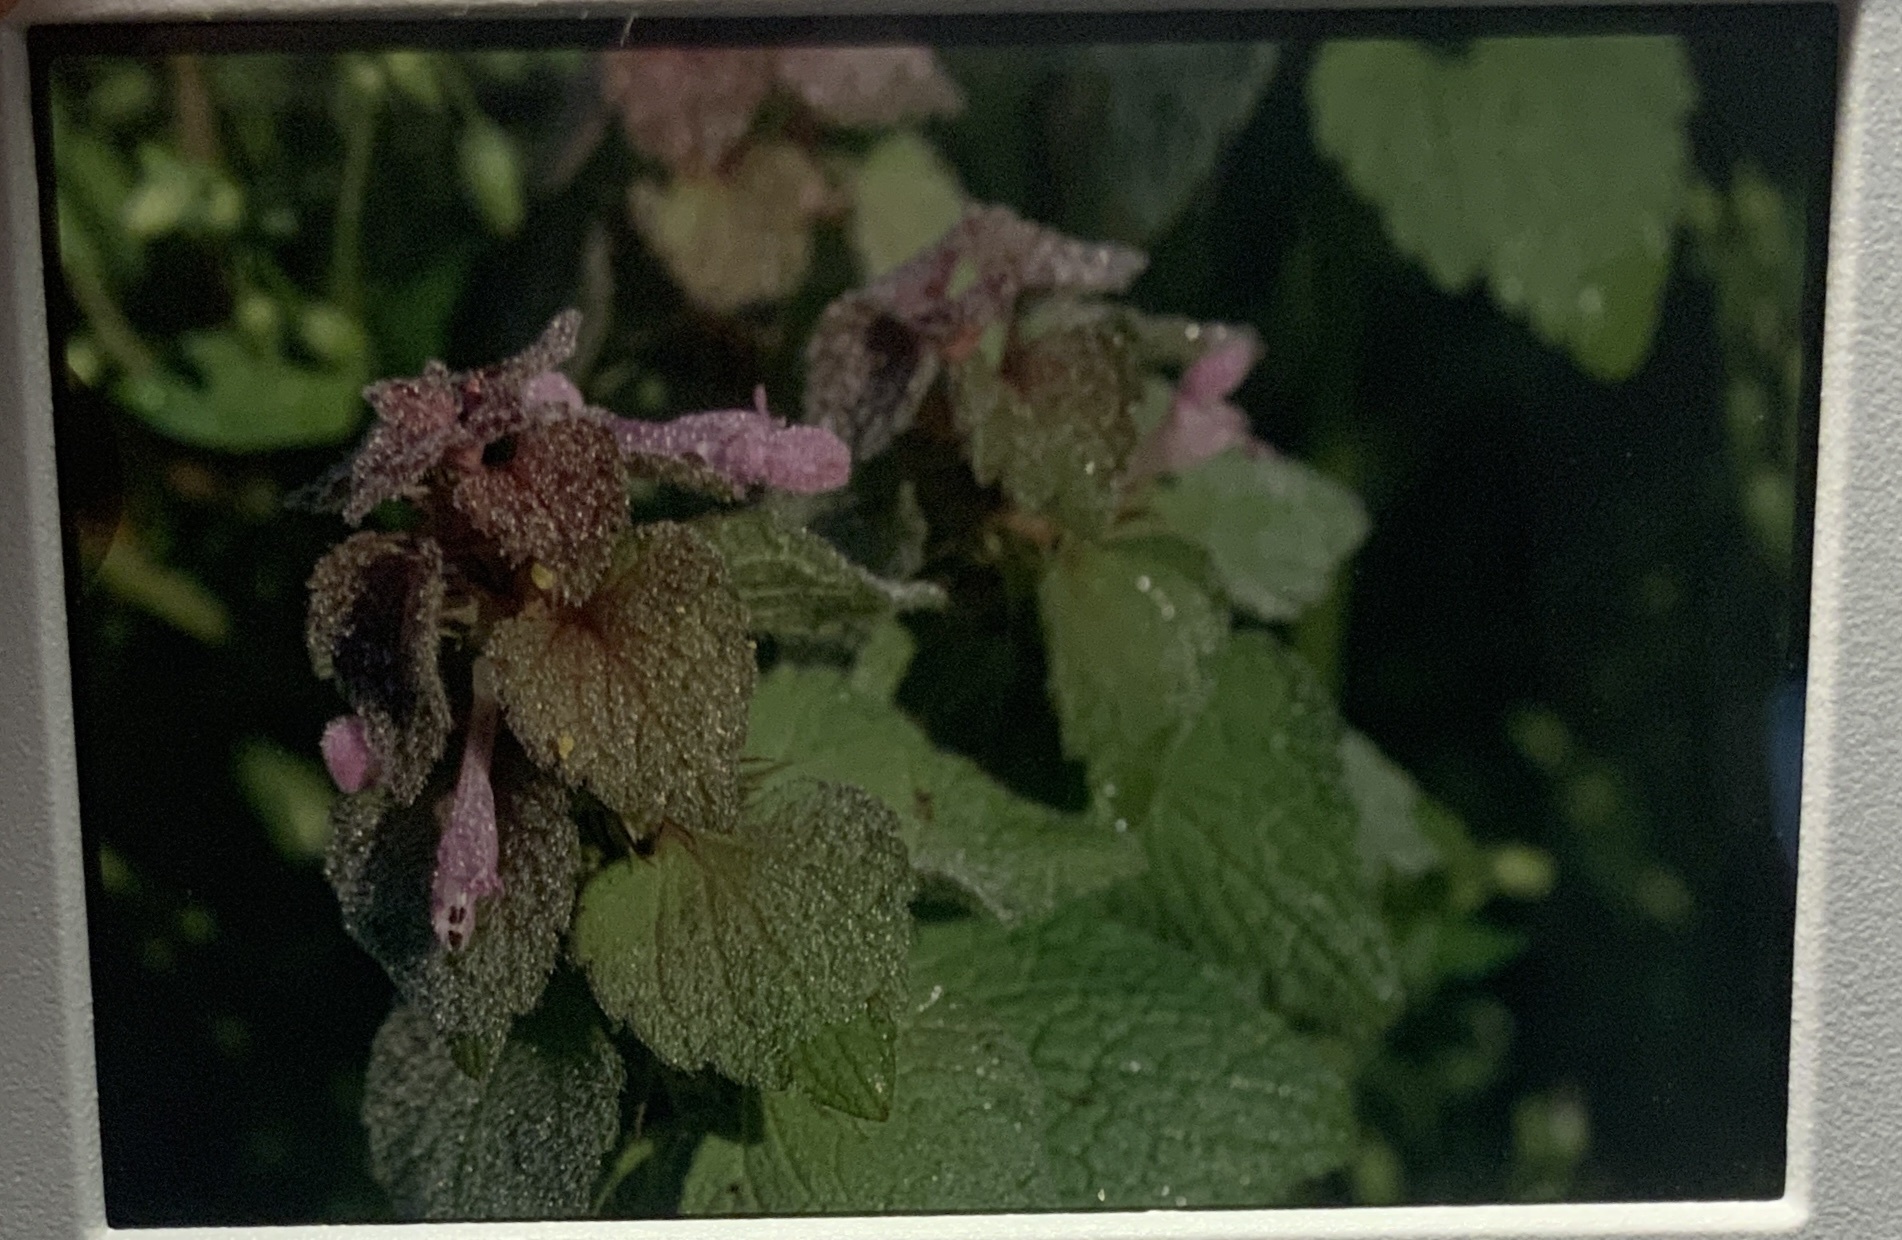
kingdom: Plantae
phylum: Tracheophyta
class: Magnoliopsida
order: Lamiales
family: Lamiaceae
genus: Lamium
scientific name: Lamium purpureum
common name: Red dead-nettle
